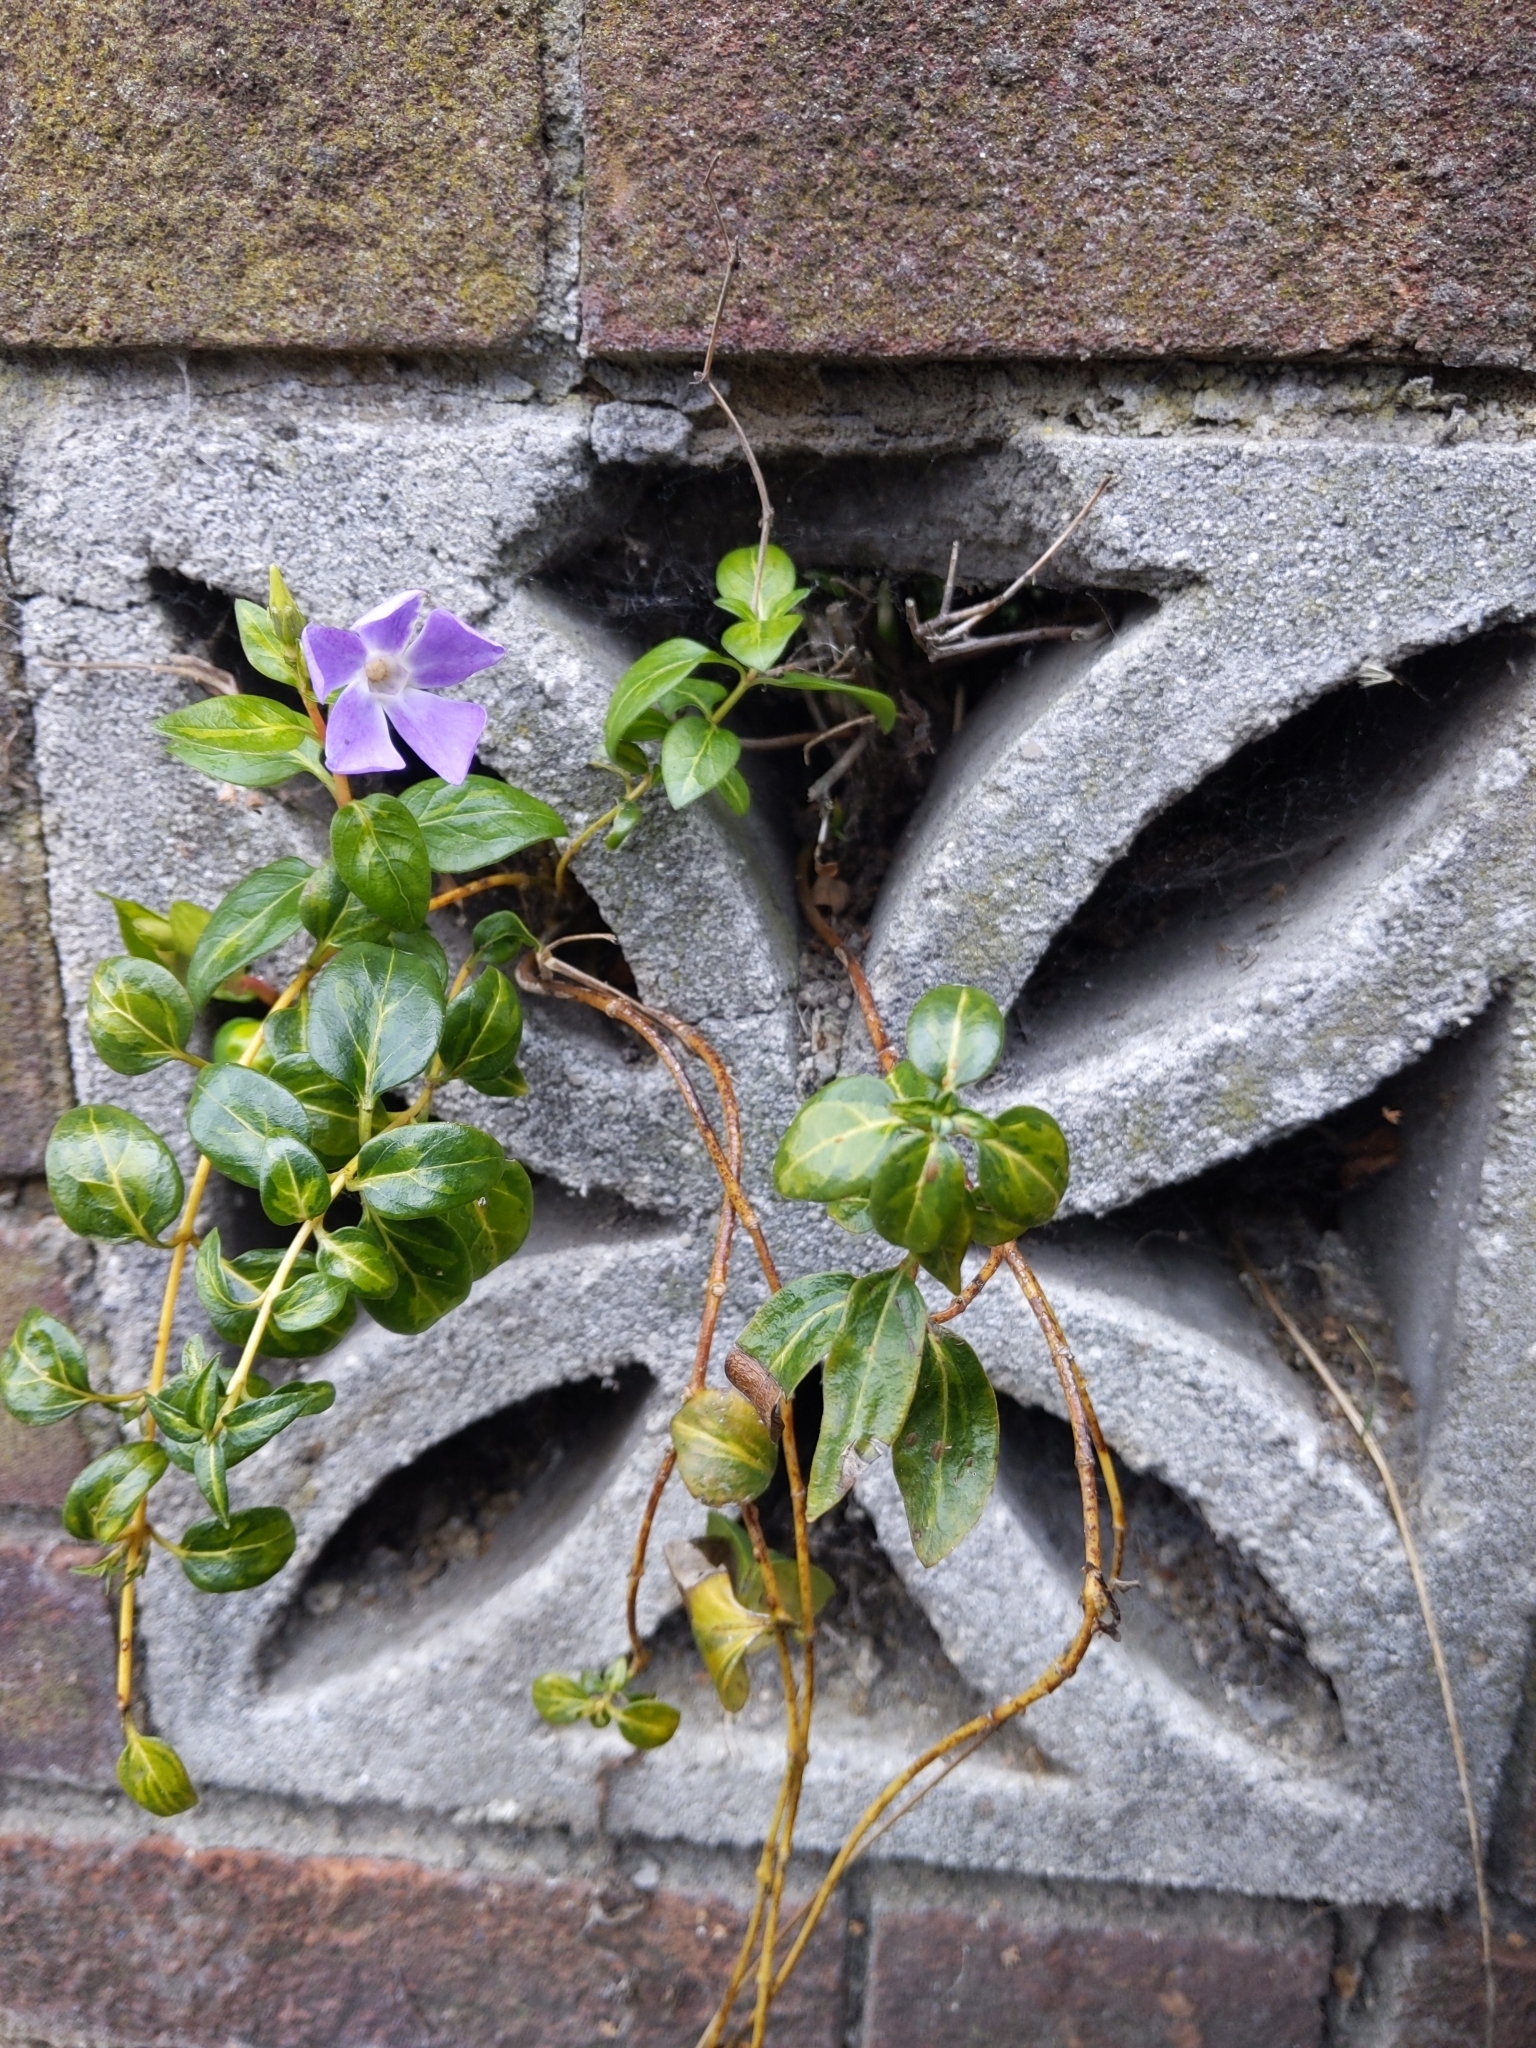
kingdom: Plantae
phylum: Tracheophyta
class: Magnoliopsida
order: Gentianales
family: Apocynaceae
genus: Vinca
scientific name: Vinca major
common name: Greater periwinkle
